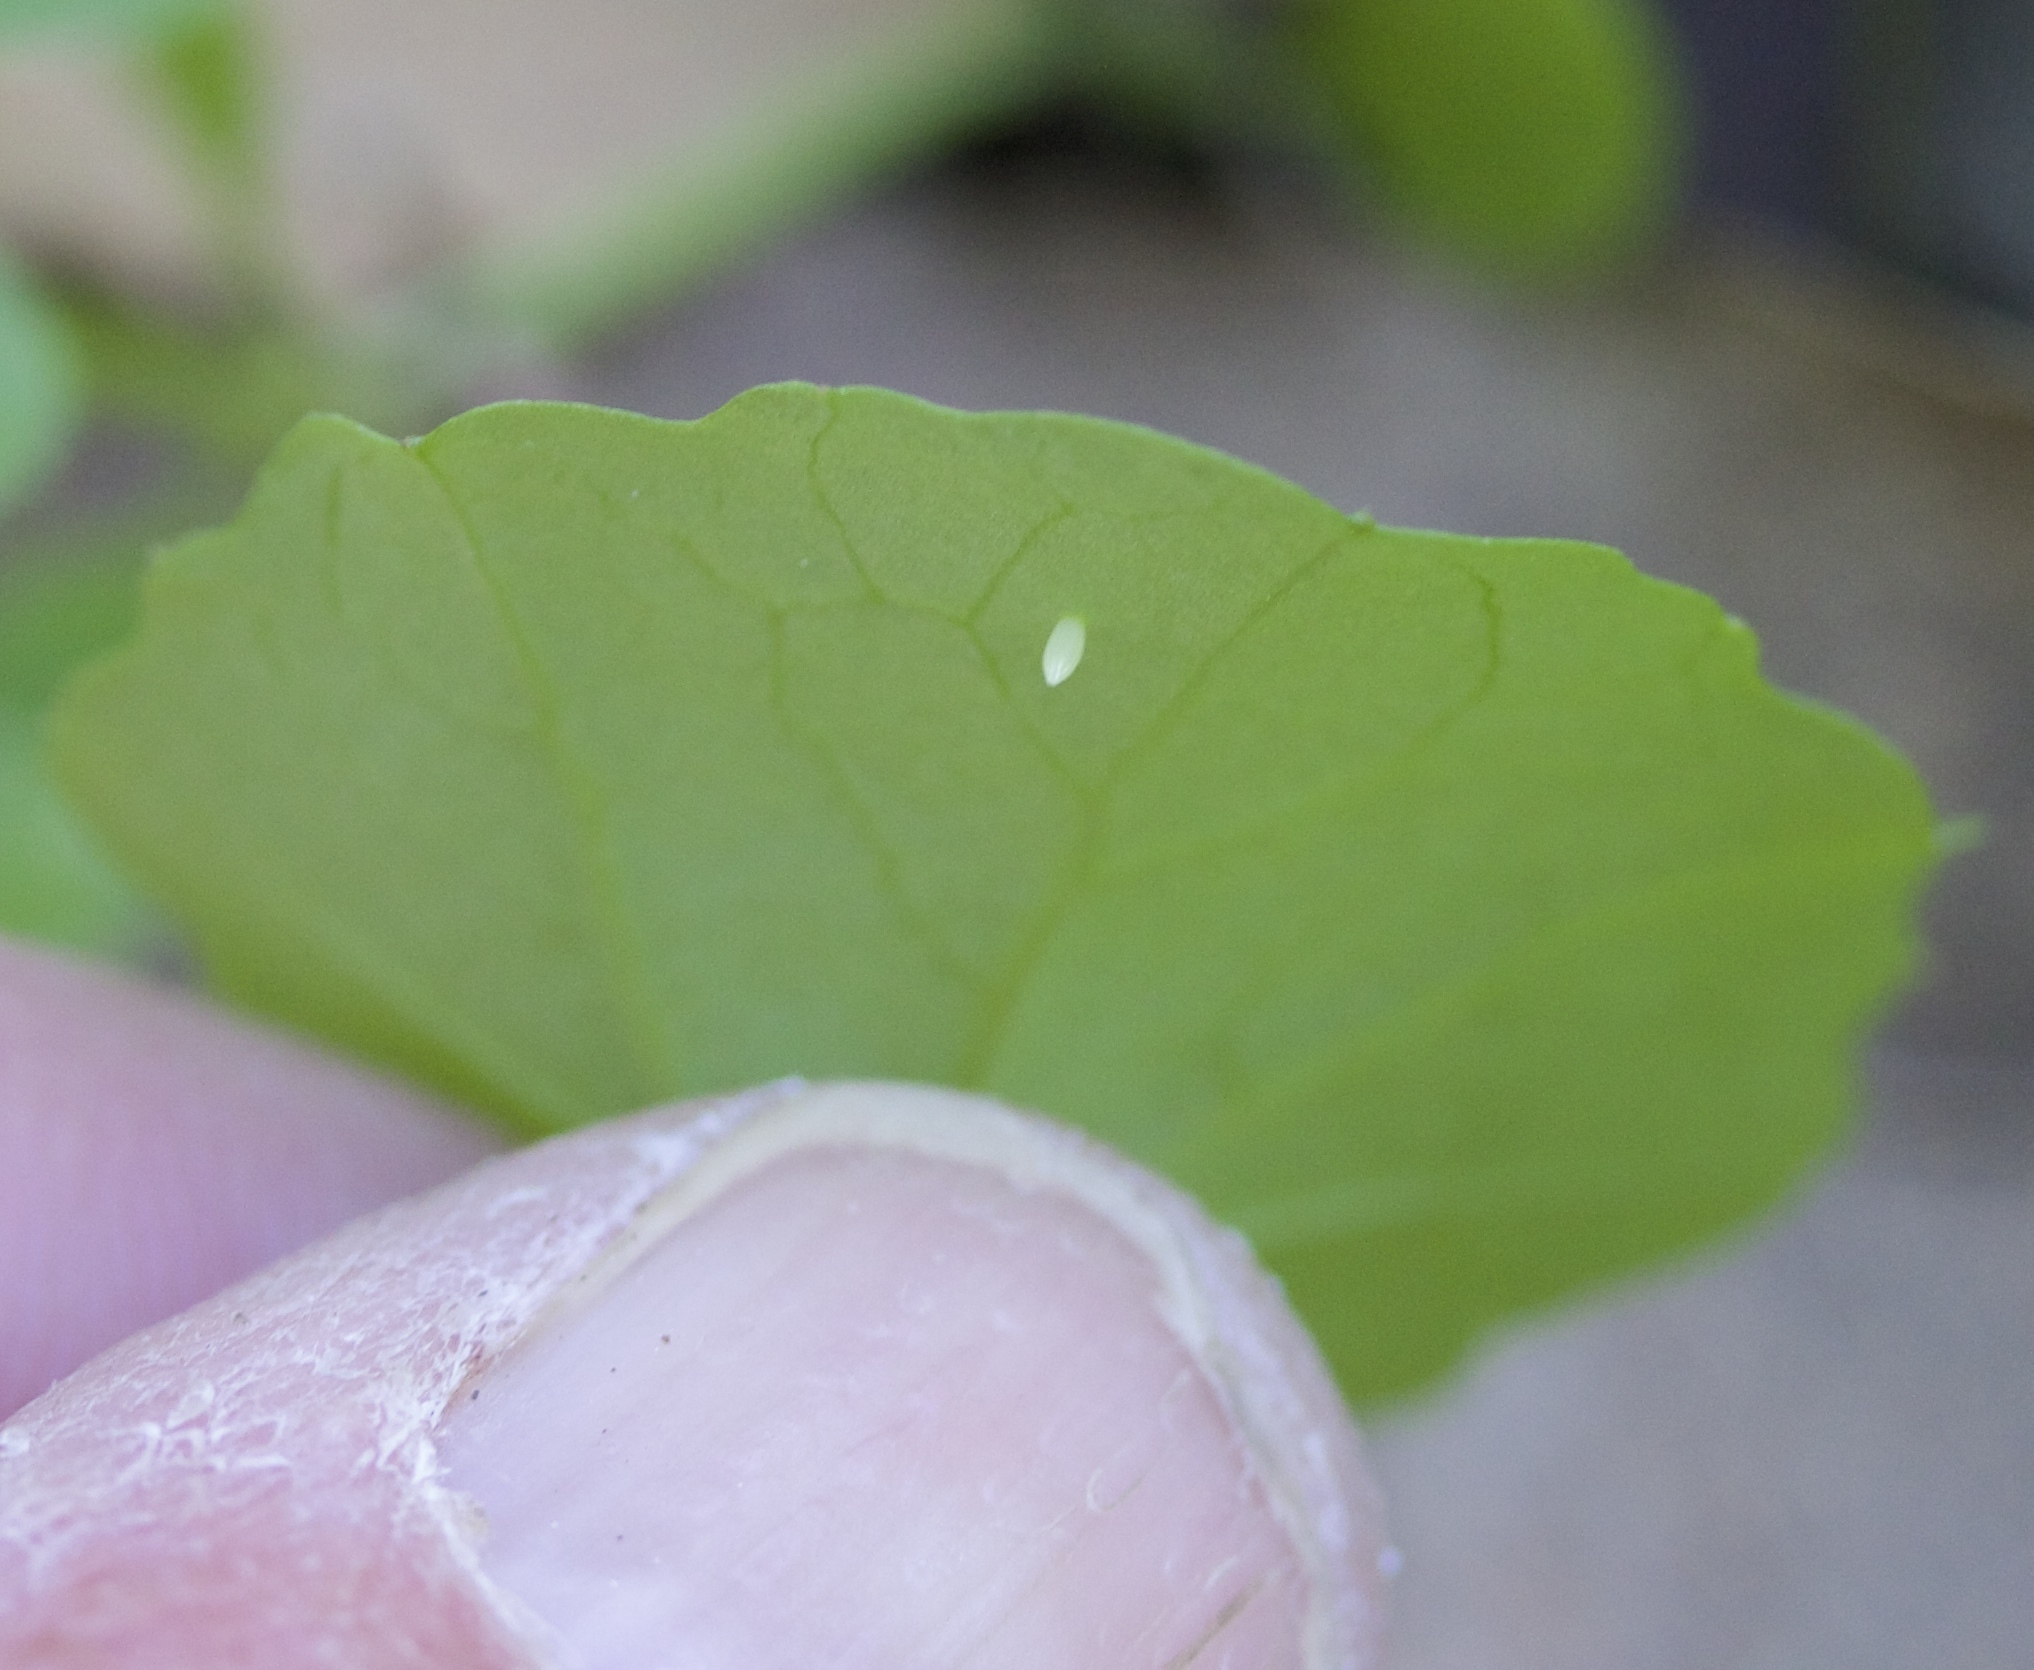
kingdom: Animalia
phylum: Arthropoda
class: Insecta
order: Lepidoptera
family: Pieridae
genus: Pieris
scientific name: Pieris marginalis
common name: Margined white
